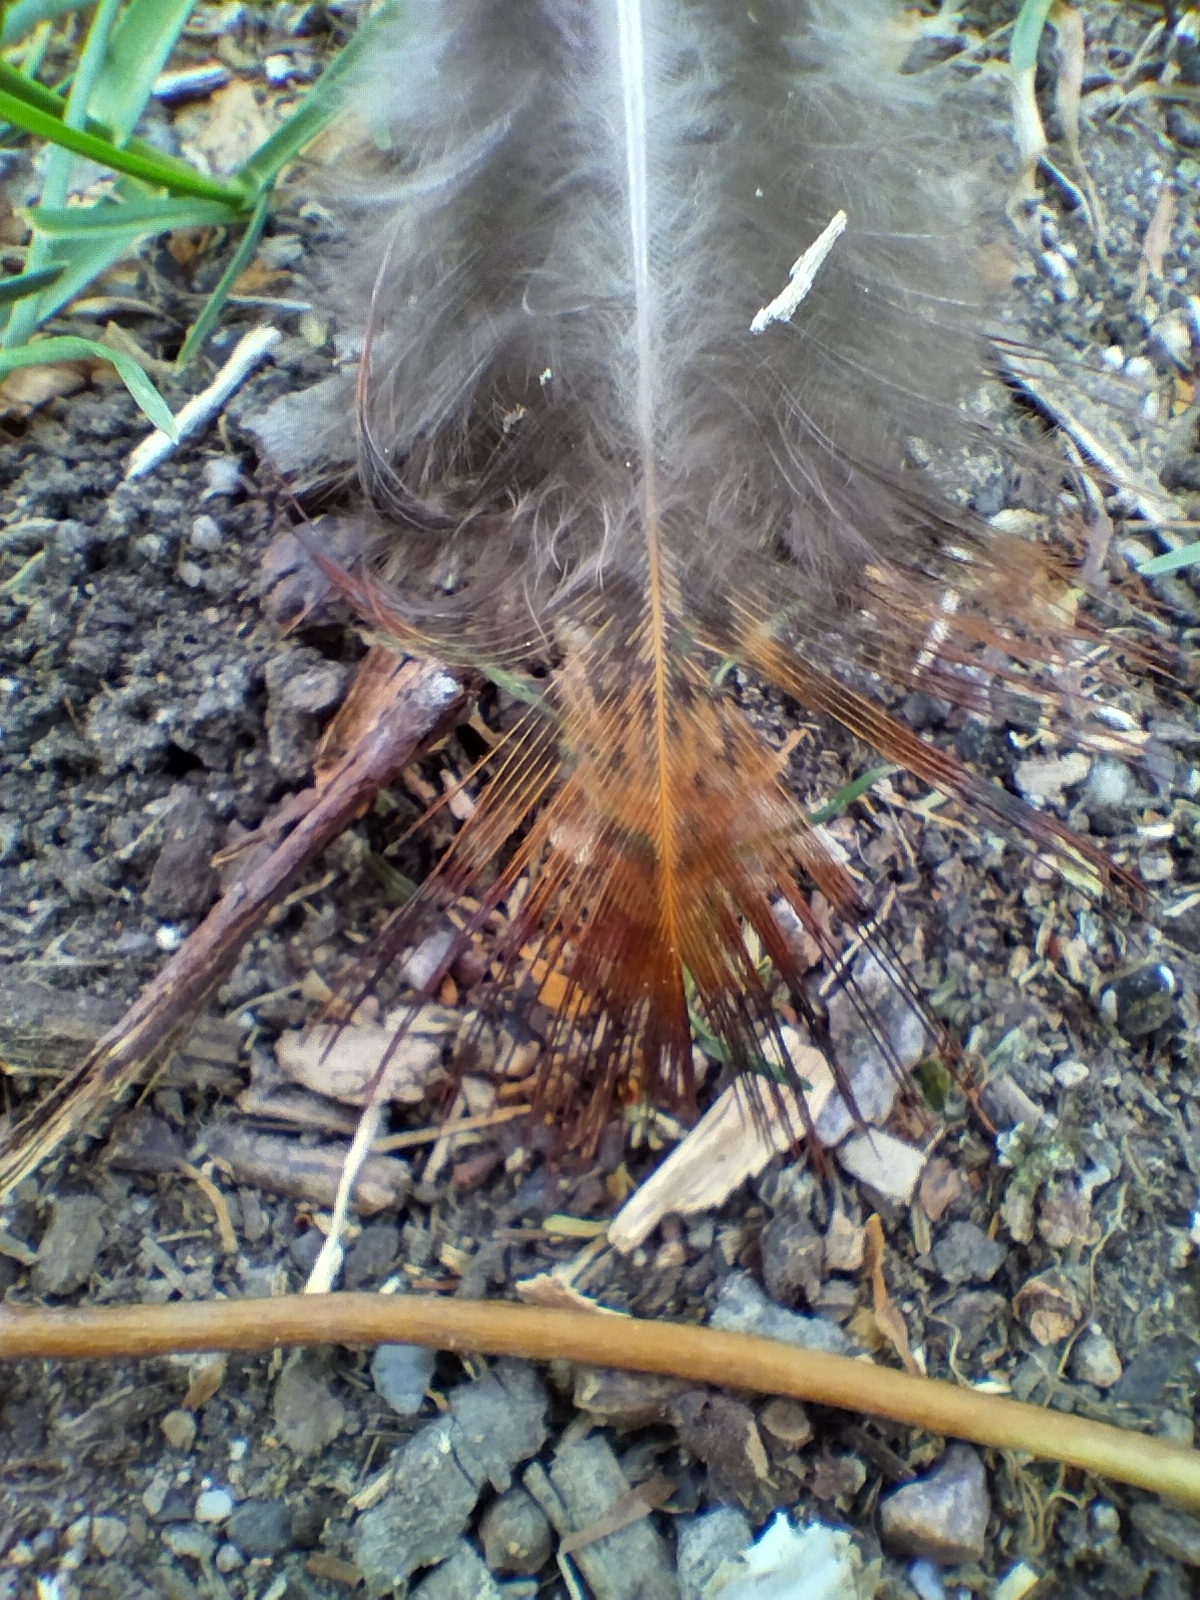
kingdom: Animalia
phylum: Chordata
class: Aves
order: Galliformes
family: Phasianidae
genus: Phasianus
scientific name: Phasianus colchicus
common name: Common pheasant
